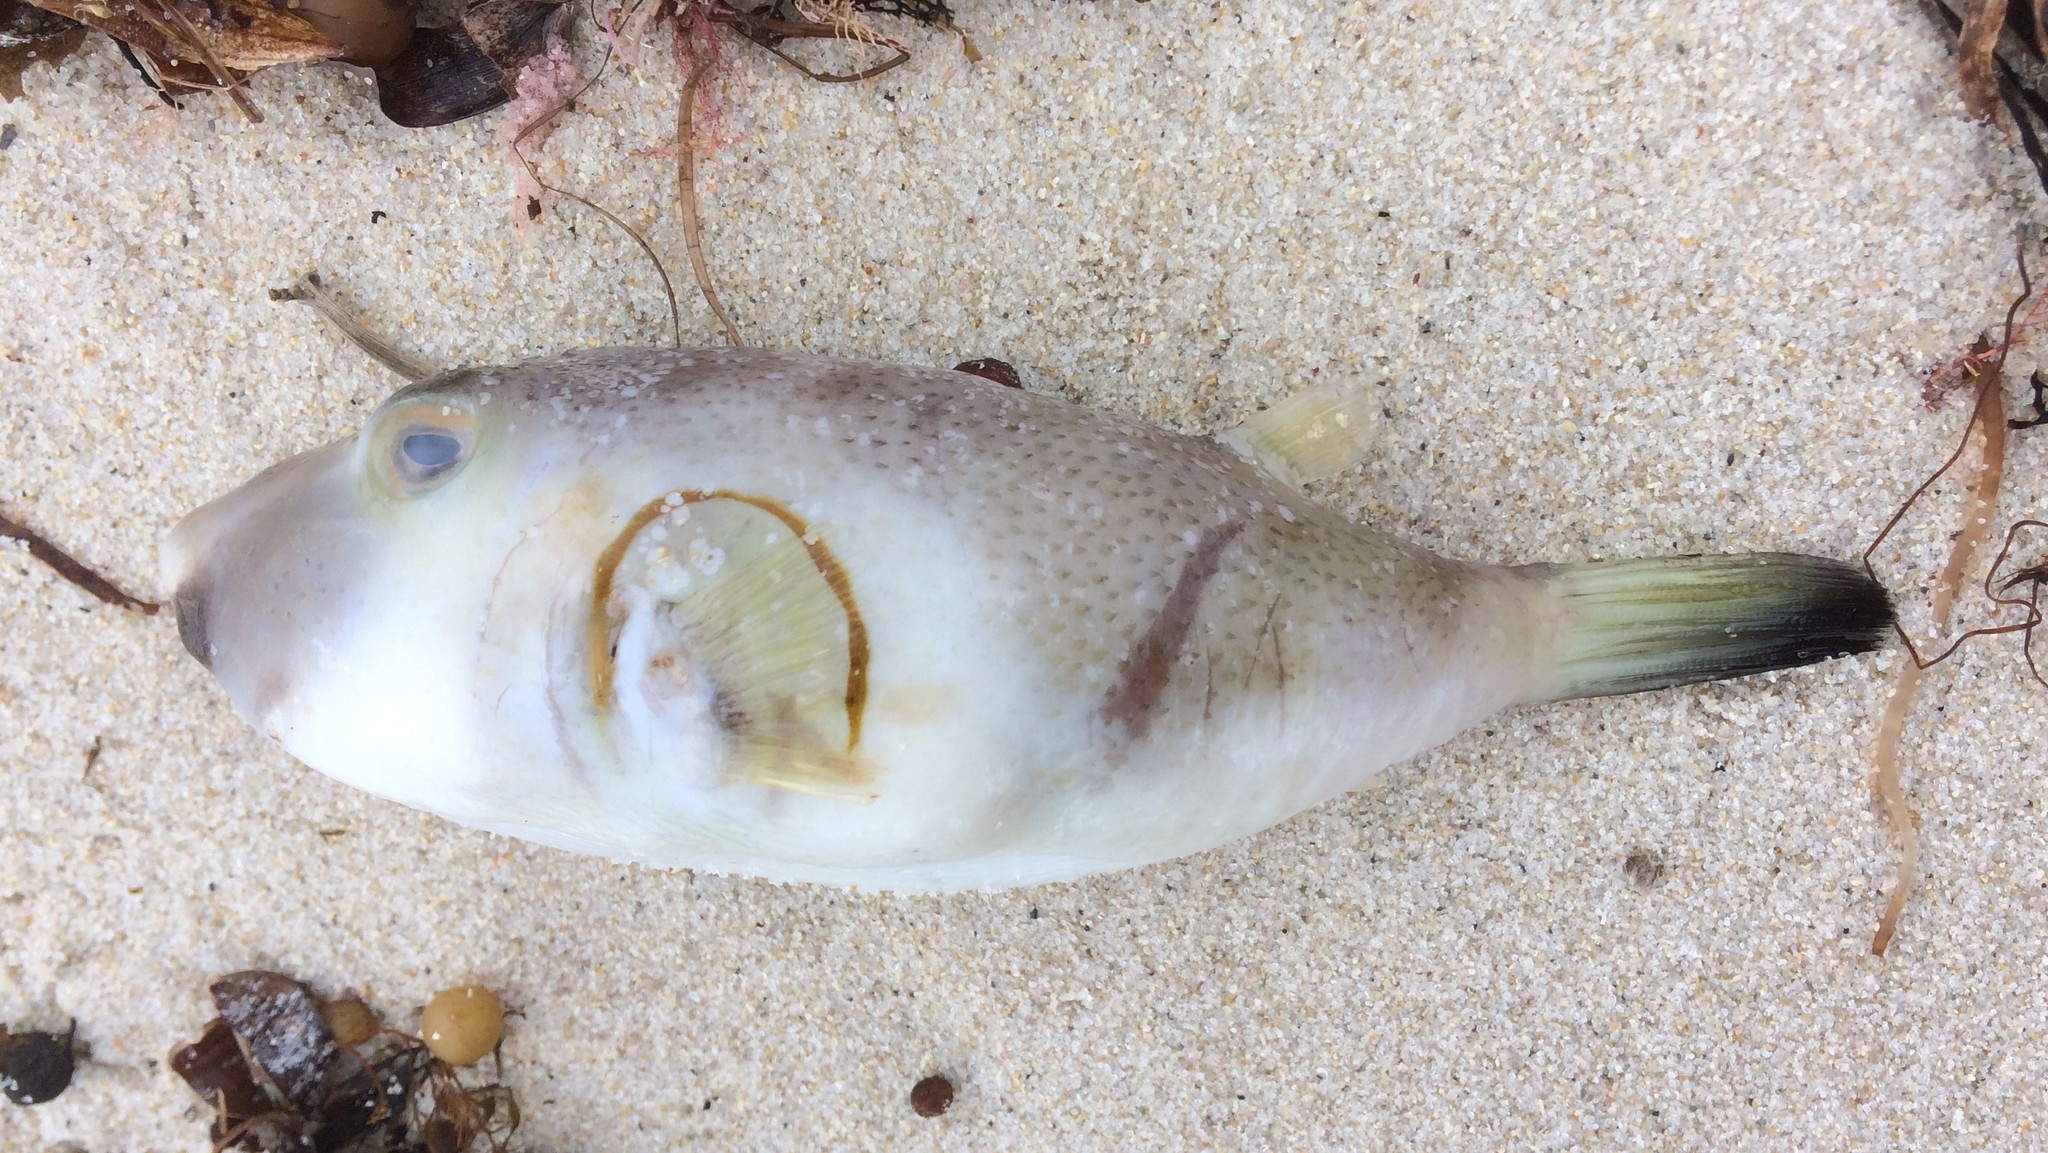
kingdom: Animalia
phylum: Chordata
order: Tetraodontiformes
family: Tetraodontidae
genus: Omegophora
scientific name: Omegophora armilla
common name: Ringed pufferfish
